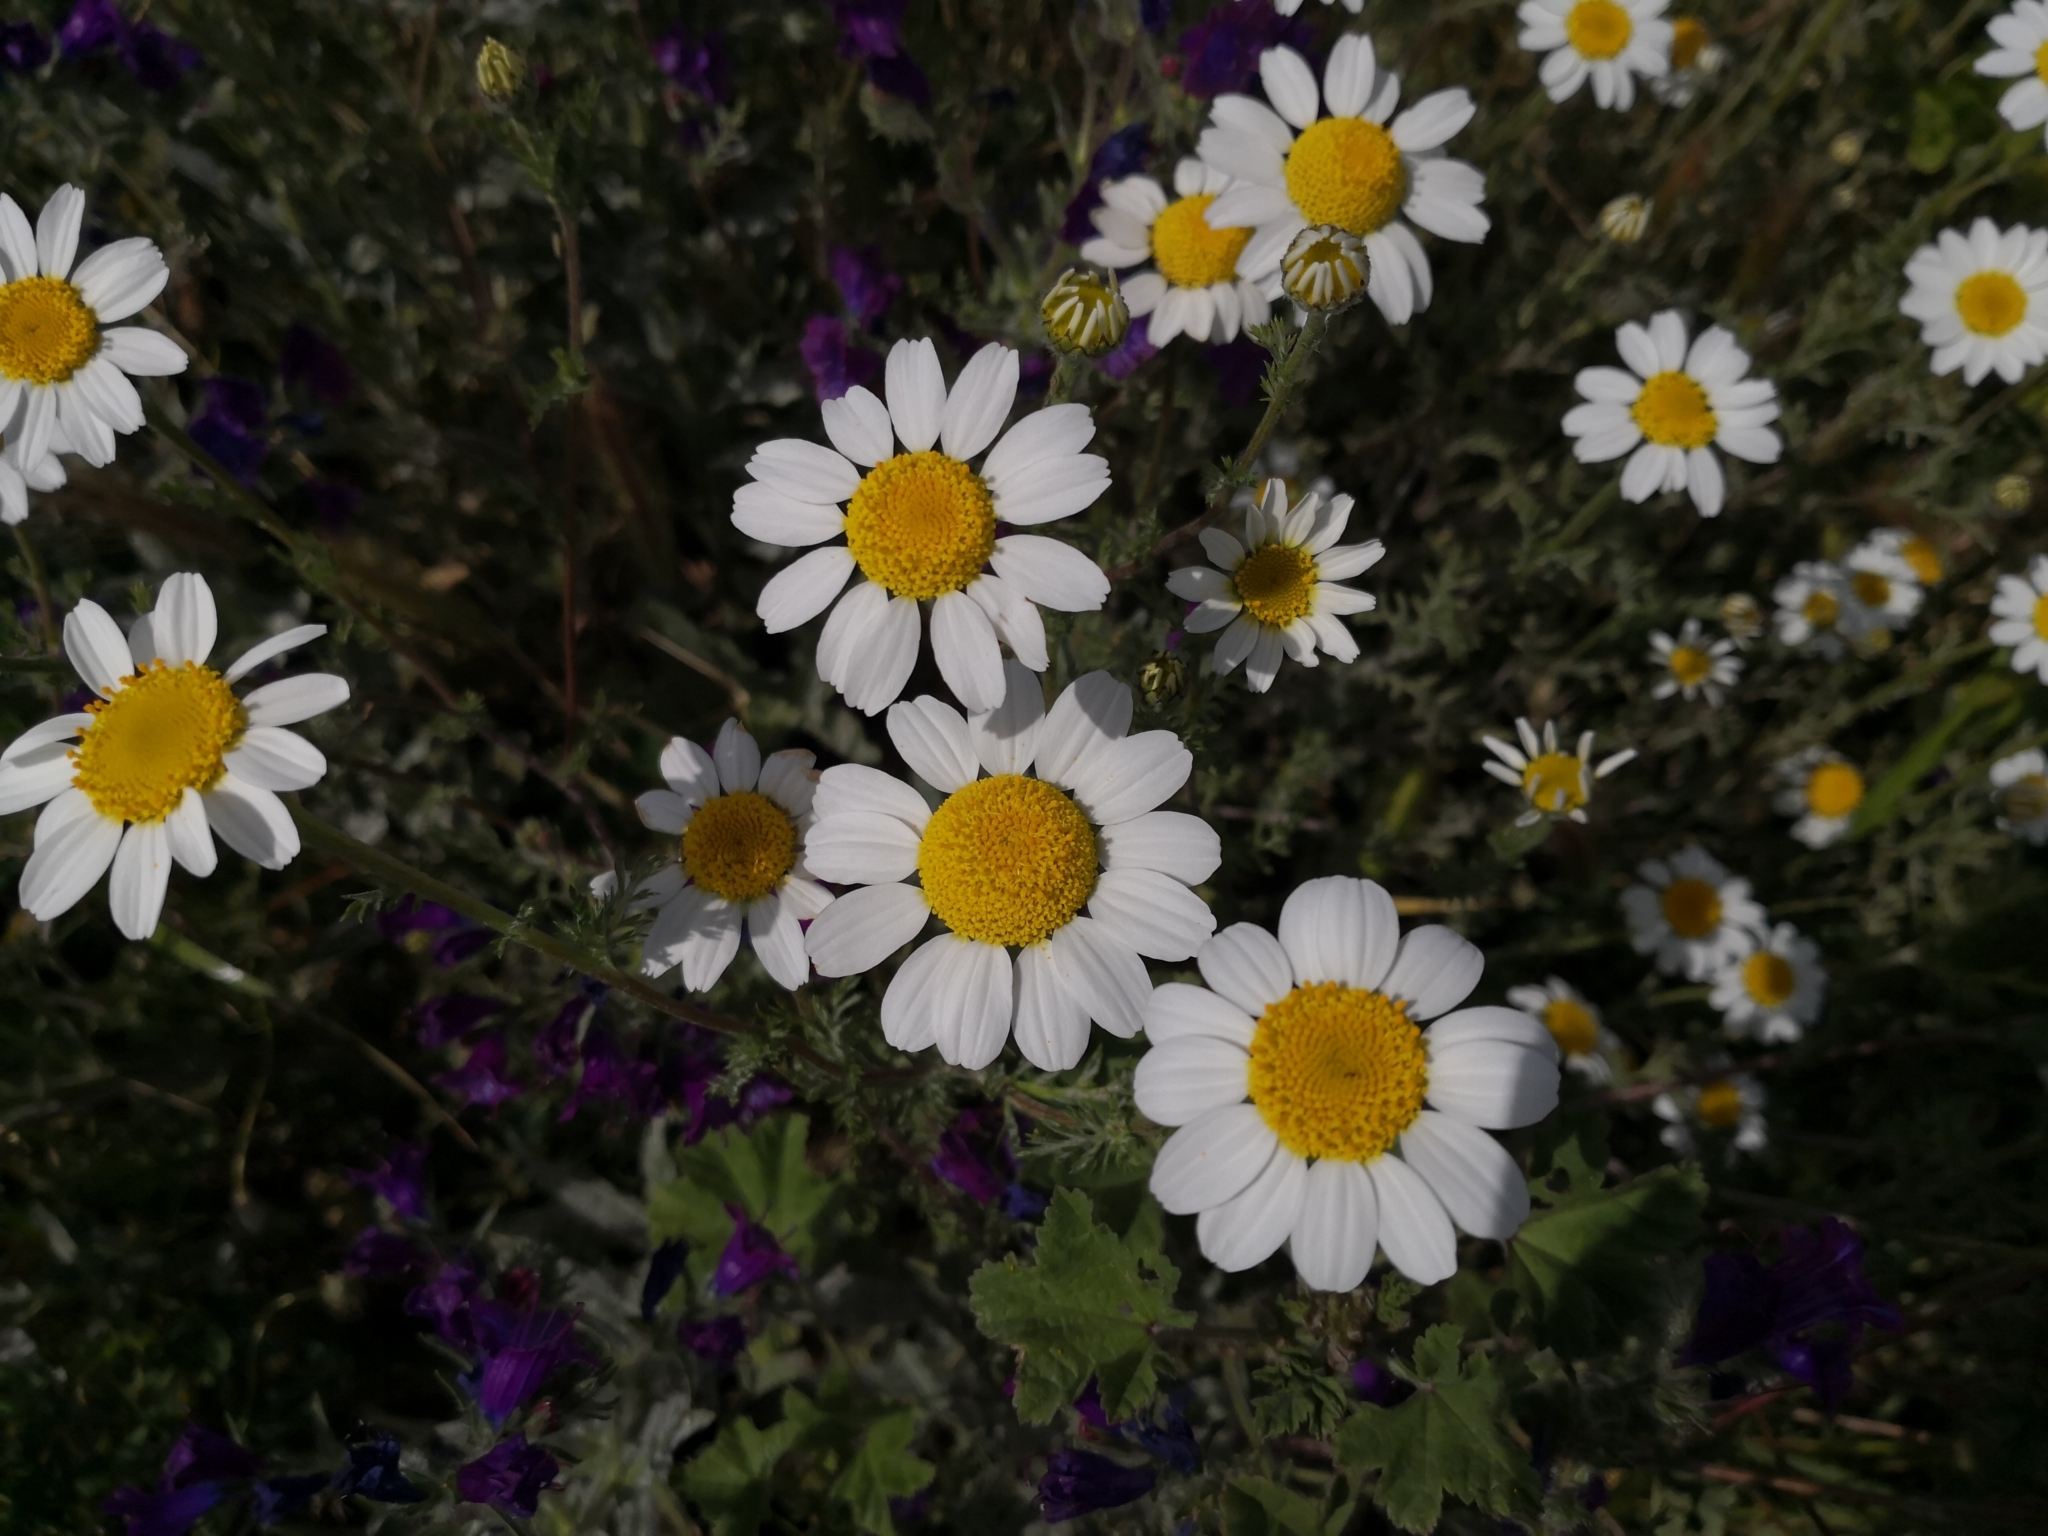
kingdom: Plantae
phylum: Tracheophyta
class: Magnoliopsida
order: Asterales
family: Asteraceae
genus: Anacyclus
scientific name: Anacyclus clavatus
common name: Whitebuttons
